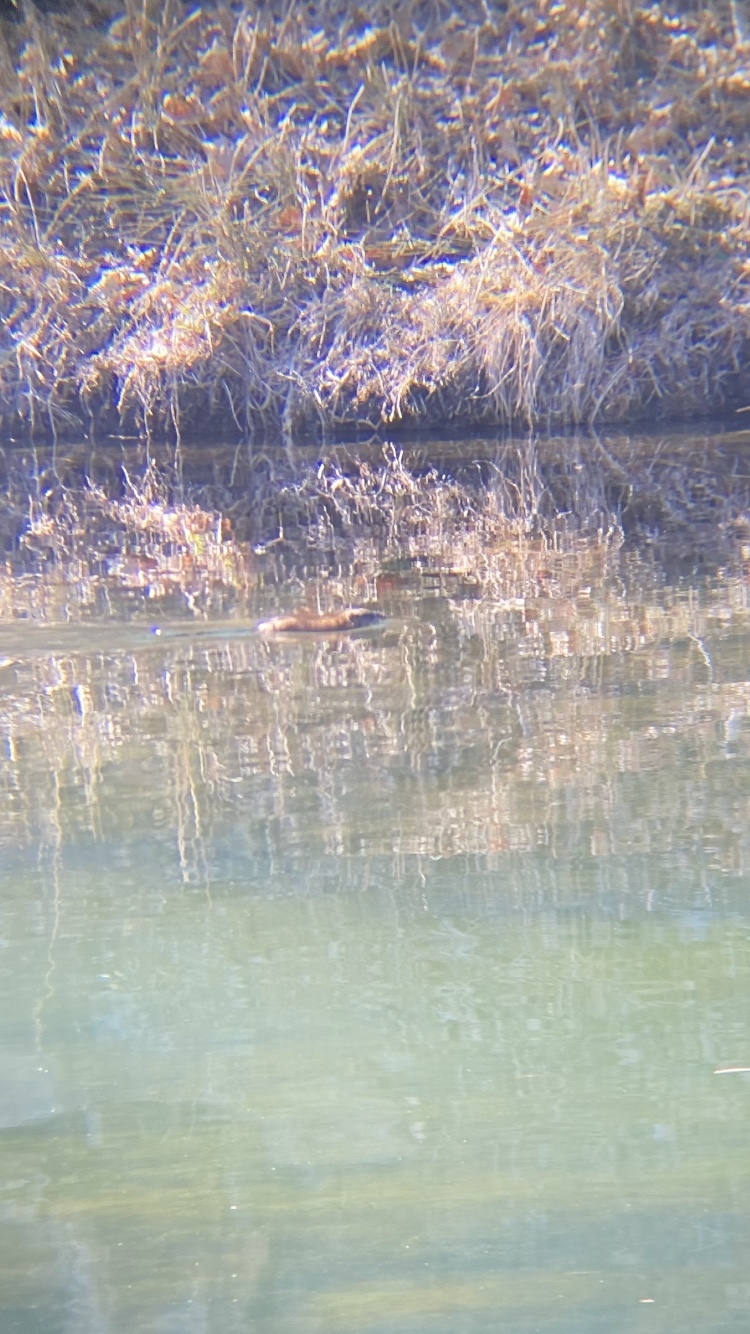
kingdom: Animalia
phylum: Chordata
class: Mammalia
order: Rodentia
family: Cricetidae
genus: Ondatra
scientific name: Ondatra zibethicus
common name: Muskrat
